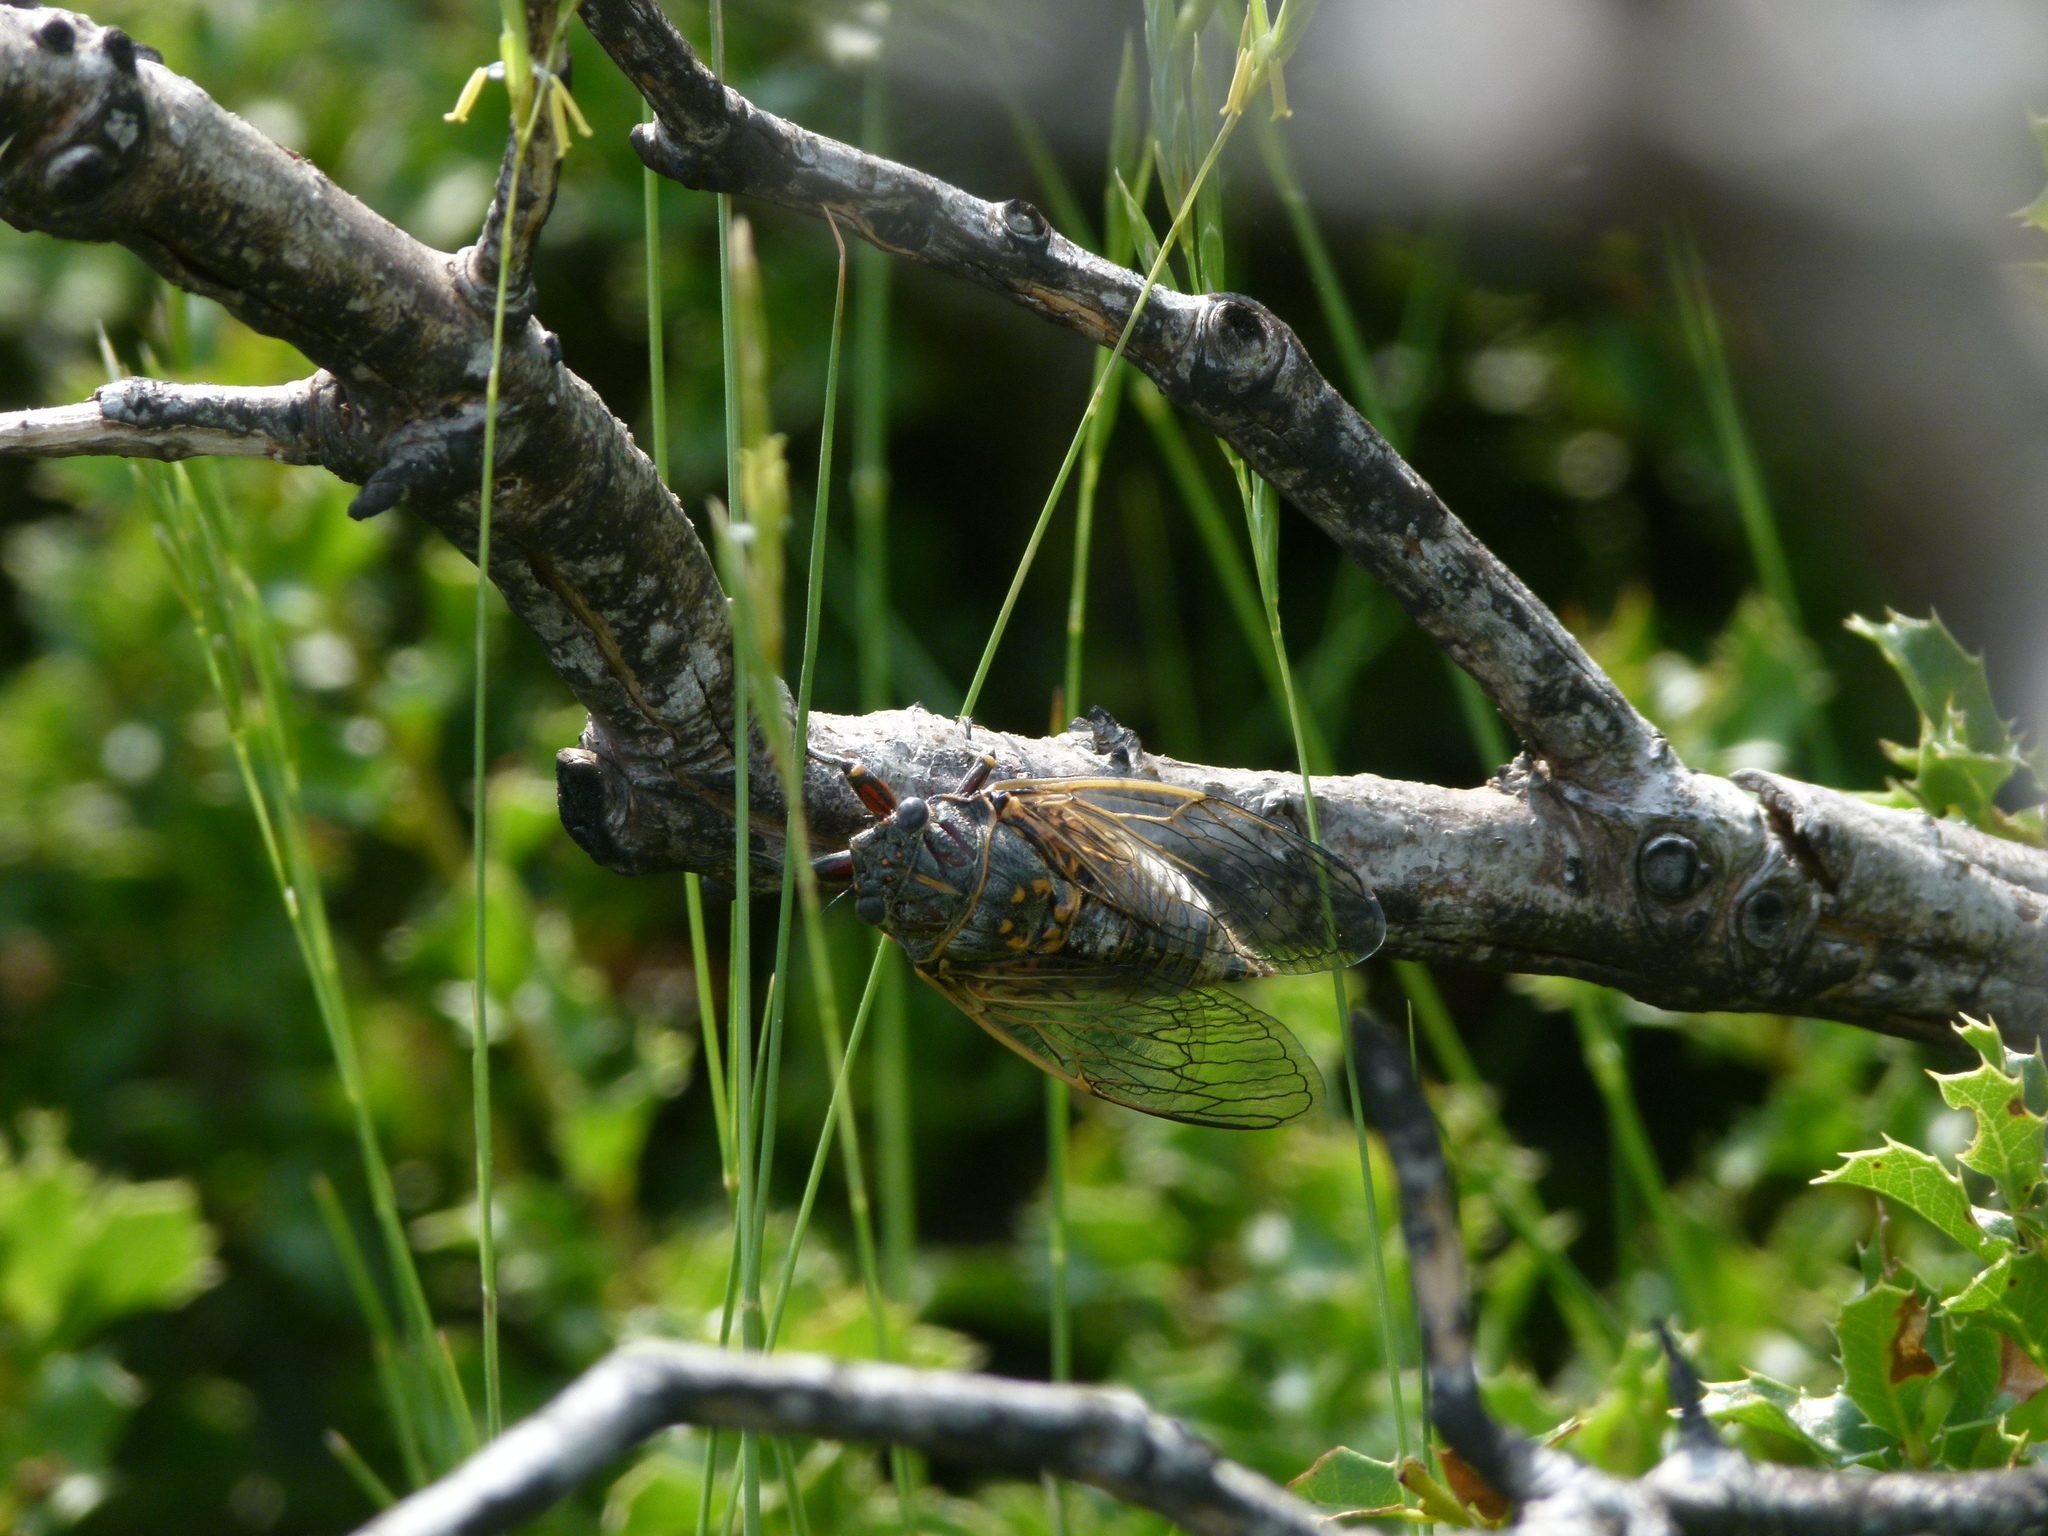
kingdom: Animalia
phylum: Arthropoda
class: Insecta
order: Hemiptera
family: Cicadidae
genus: Tibicina
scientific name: Tibicina garricola
